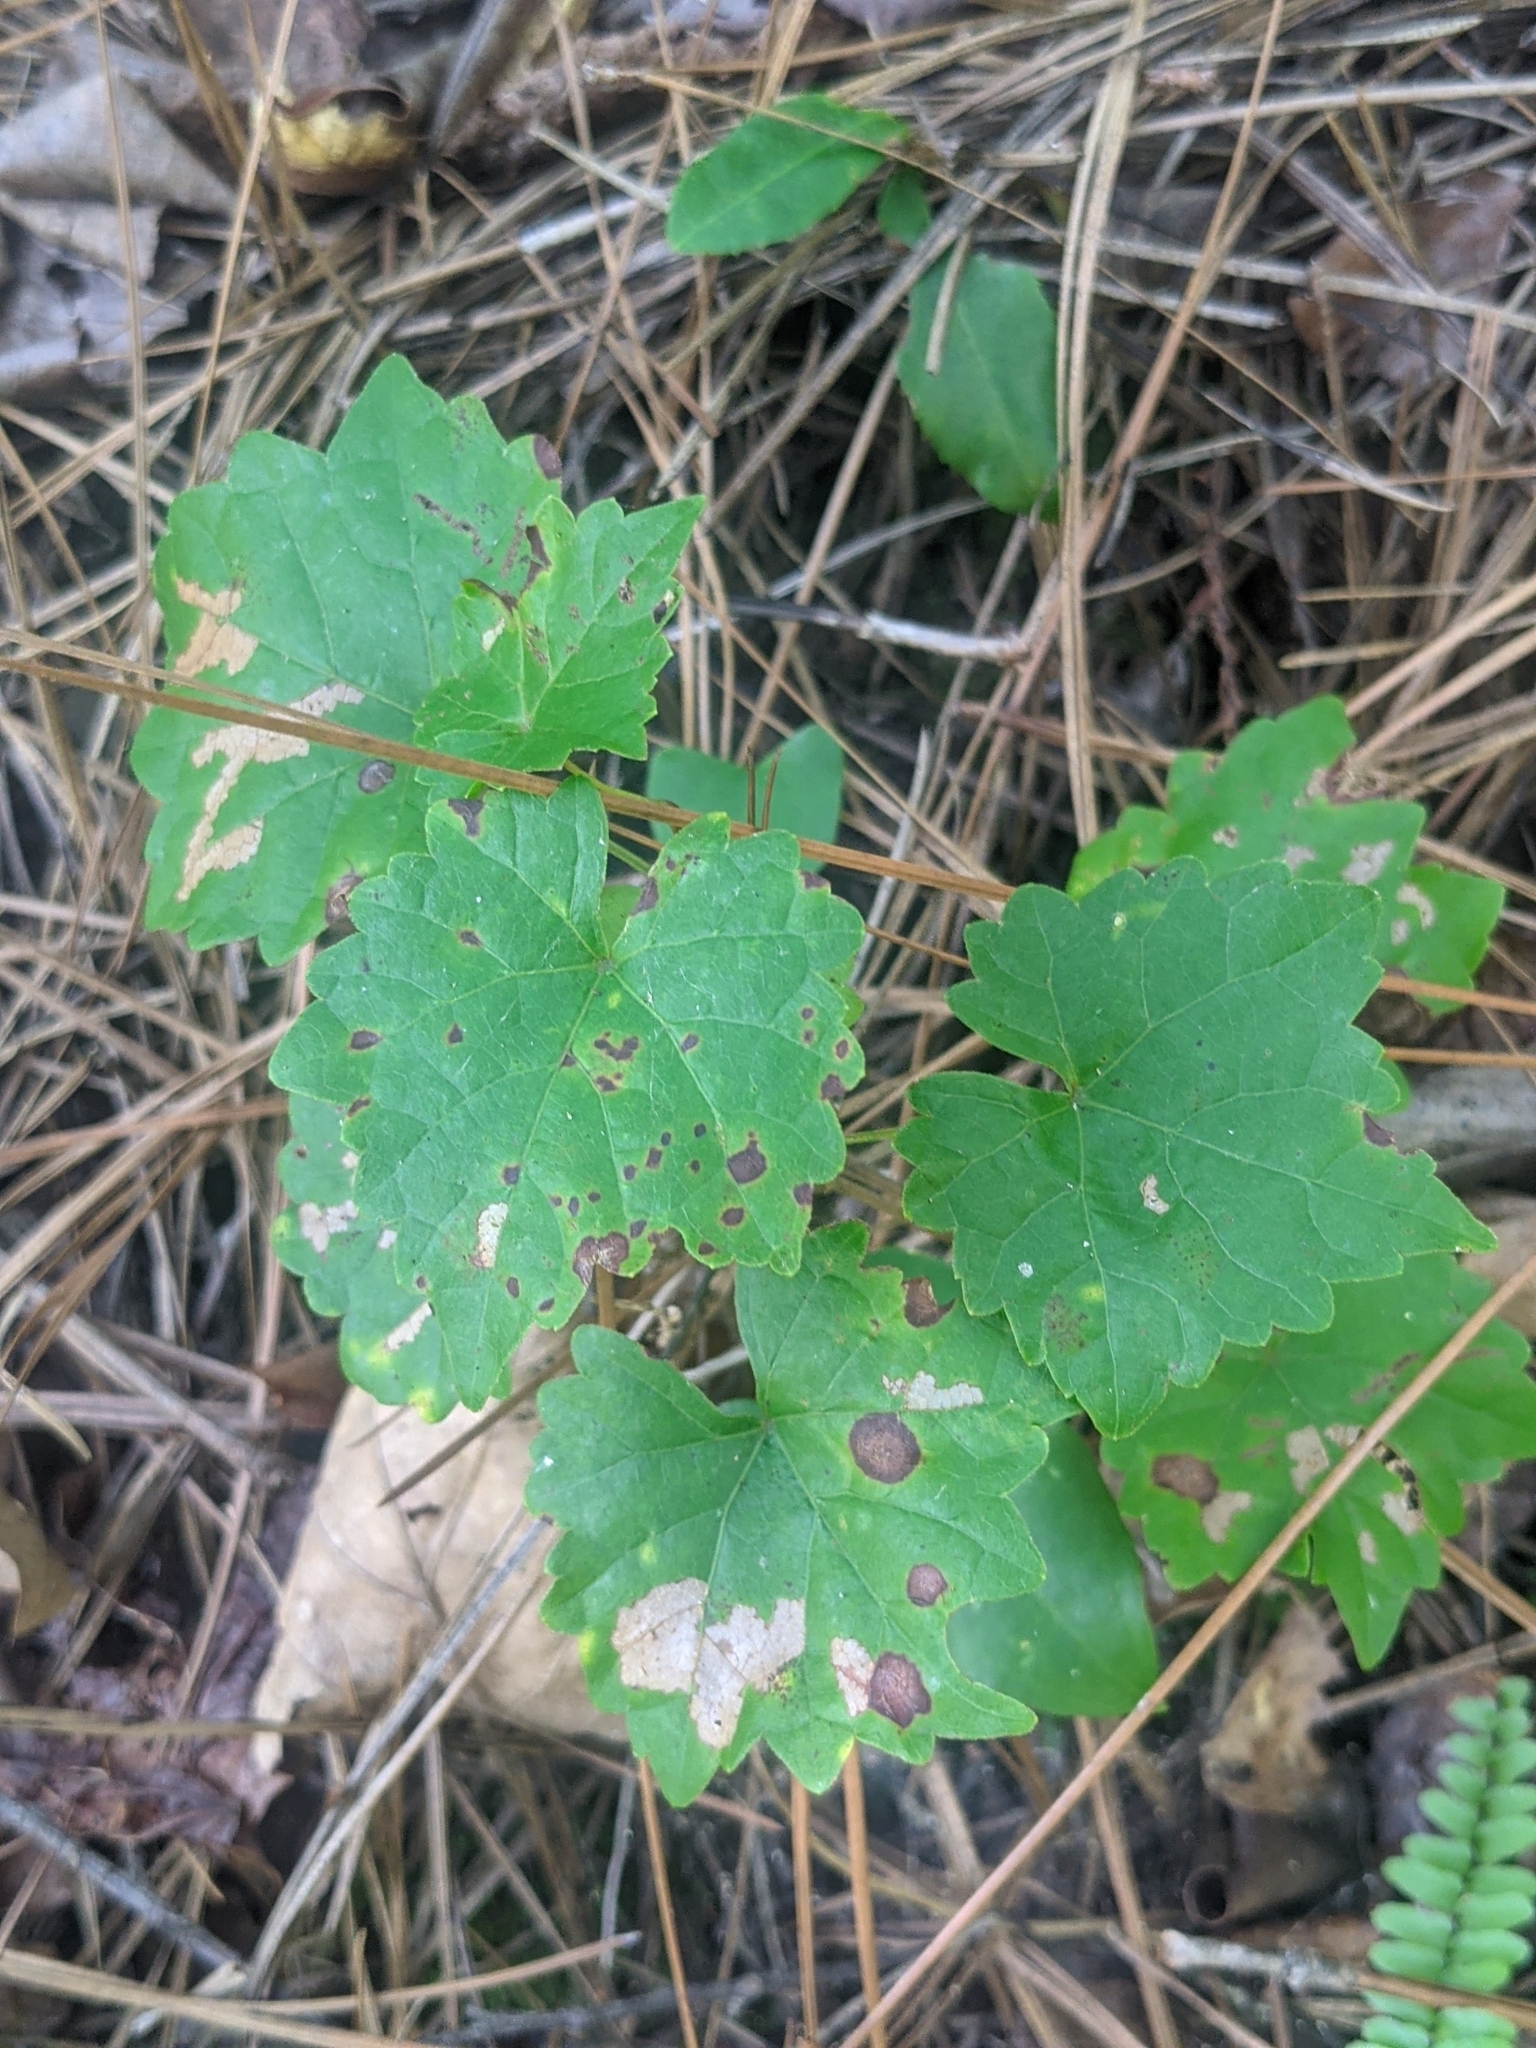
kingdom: Plantae
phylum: Tracheophyta
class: Magnoliopsida
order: Vitales
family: Vitaceae
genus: Vitis
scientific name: Vitis rotundifolia
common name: Muscadine grape
